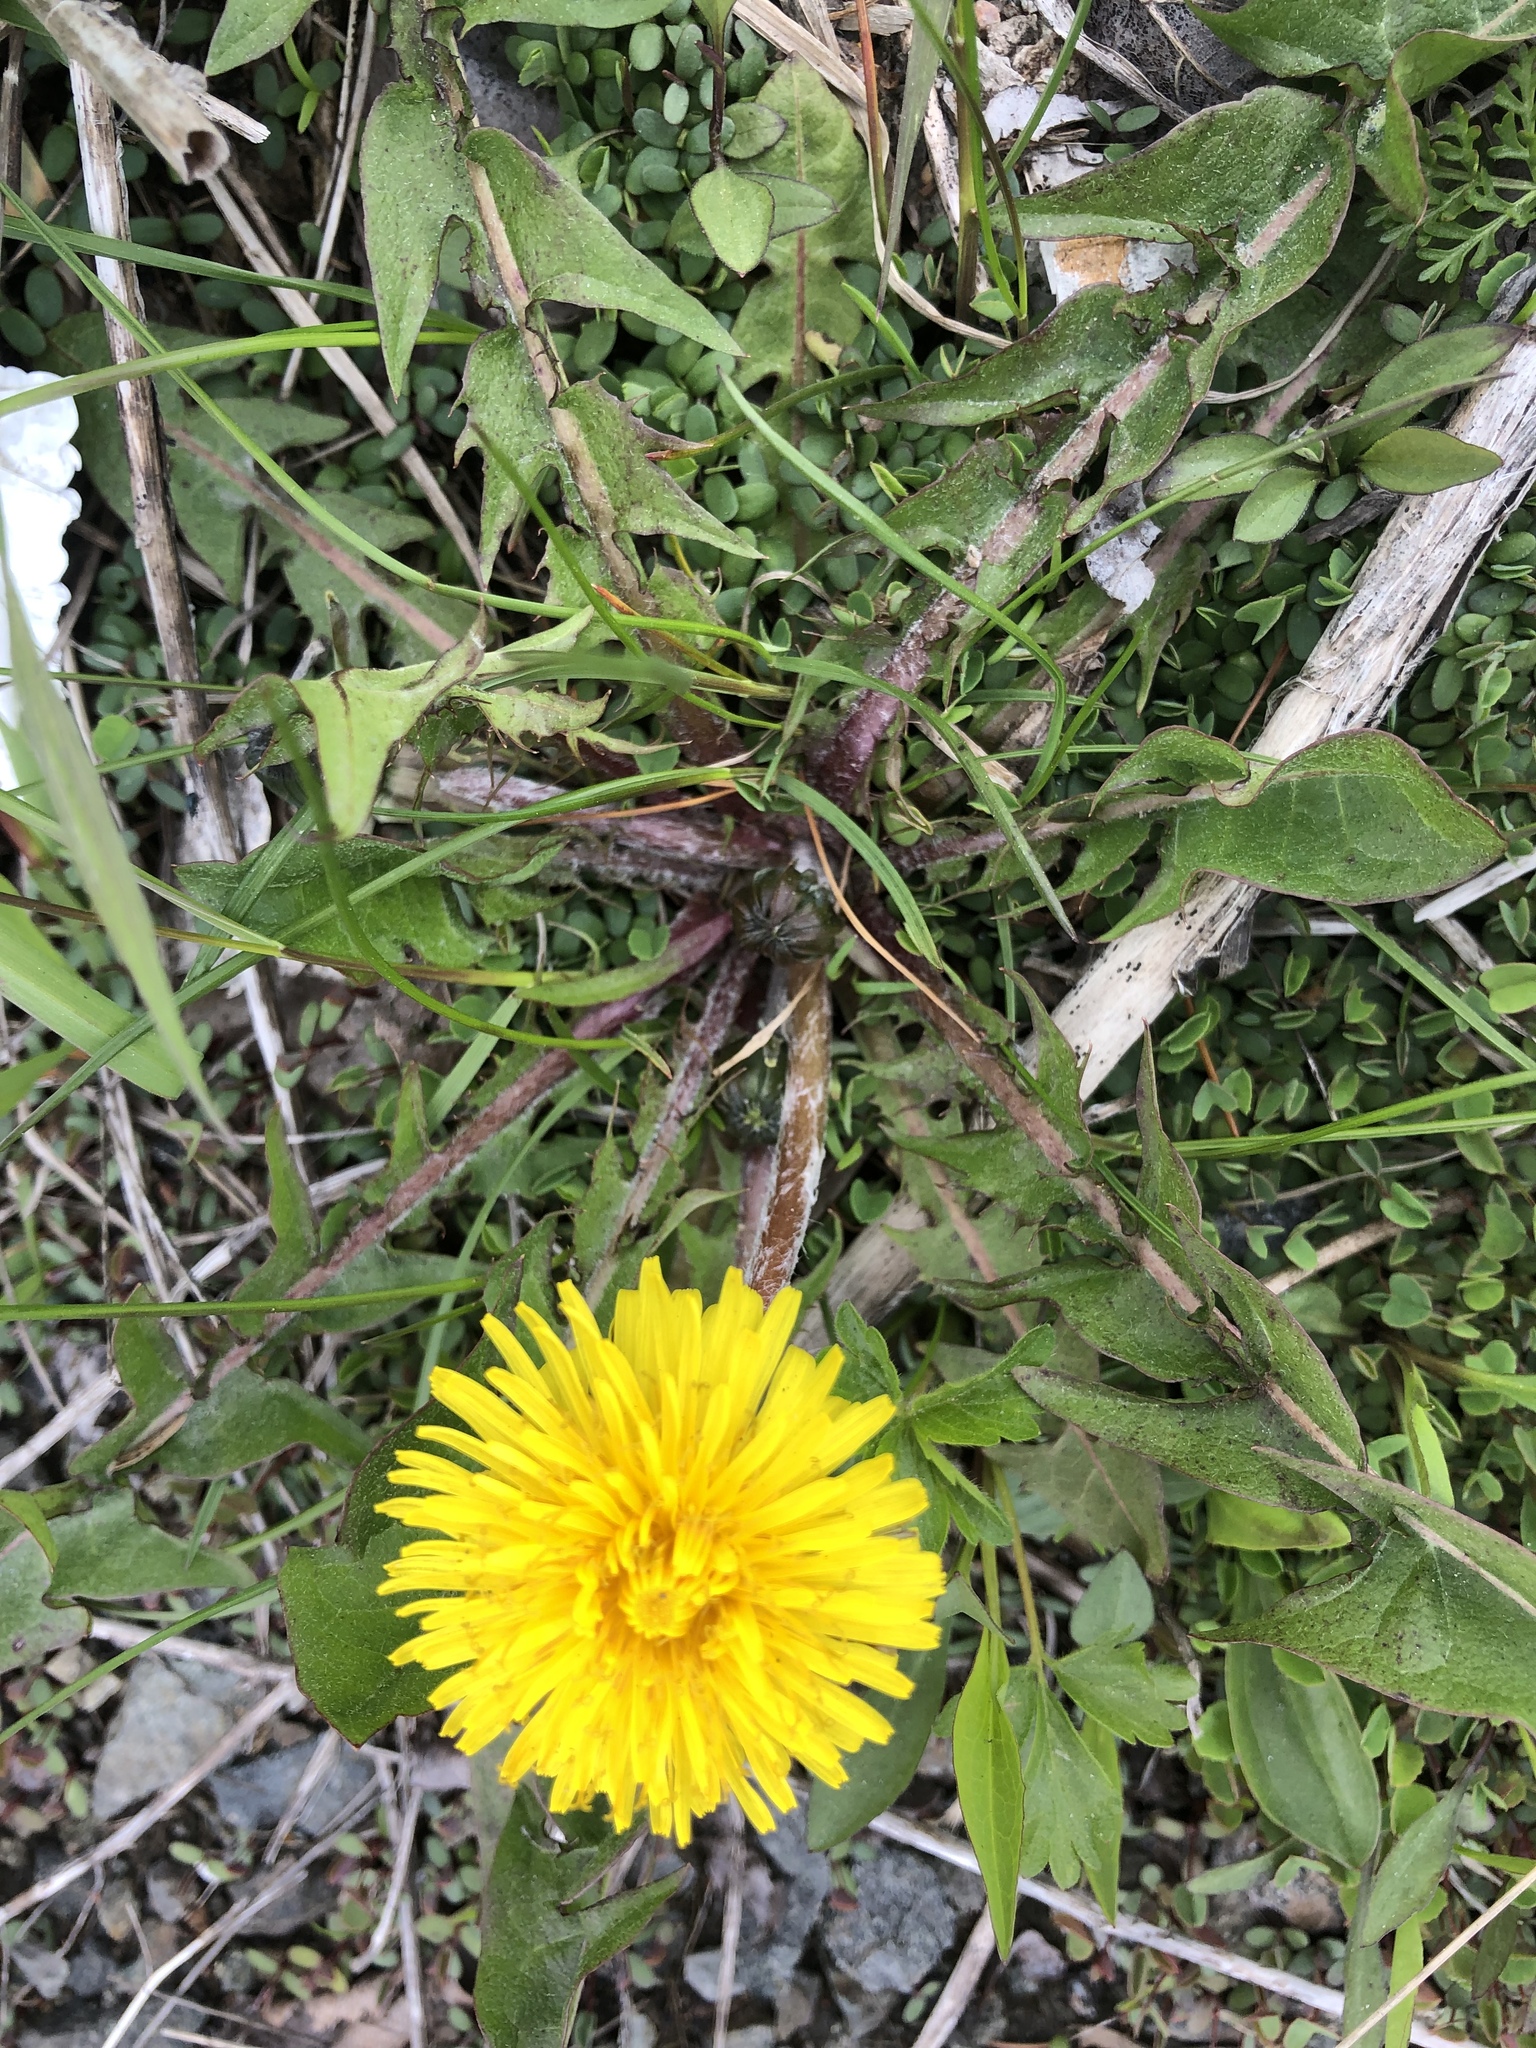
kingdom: Plantae
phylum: Tracheophyta
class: Magnoliopsida
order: Asterales
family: Asteraceae
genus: Taraxacum
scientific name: Taraxacum officinale
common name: Common dandelion
